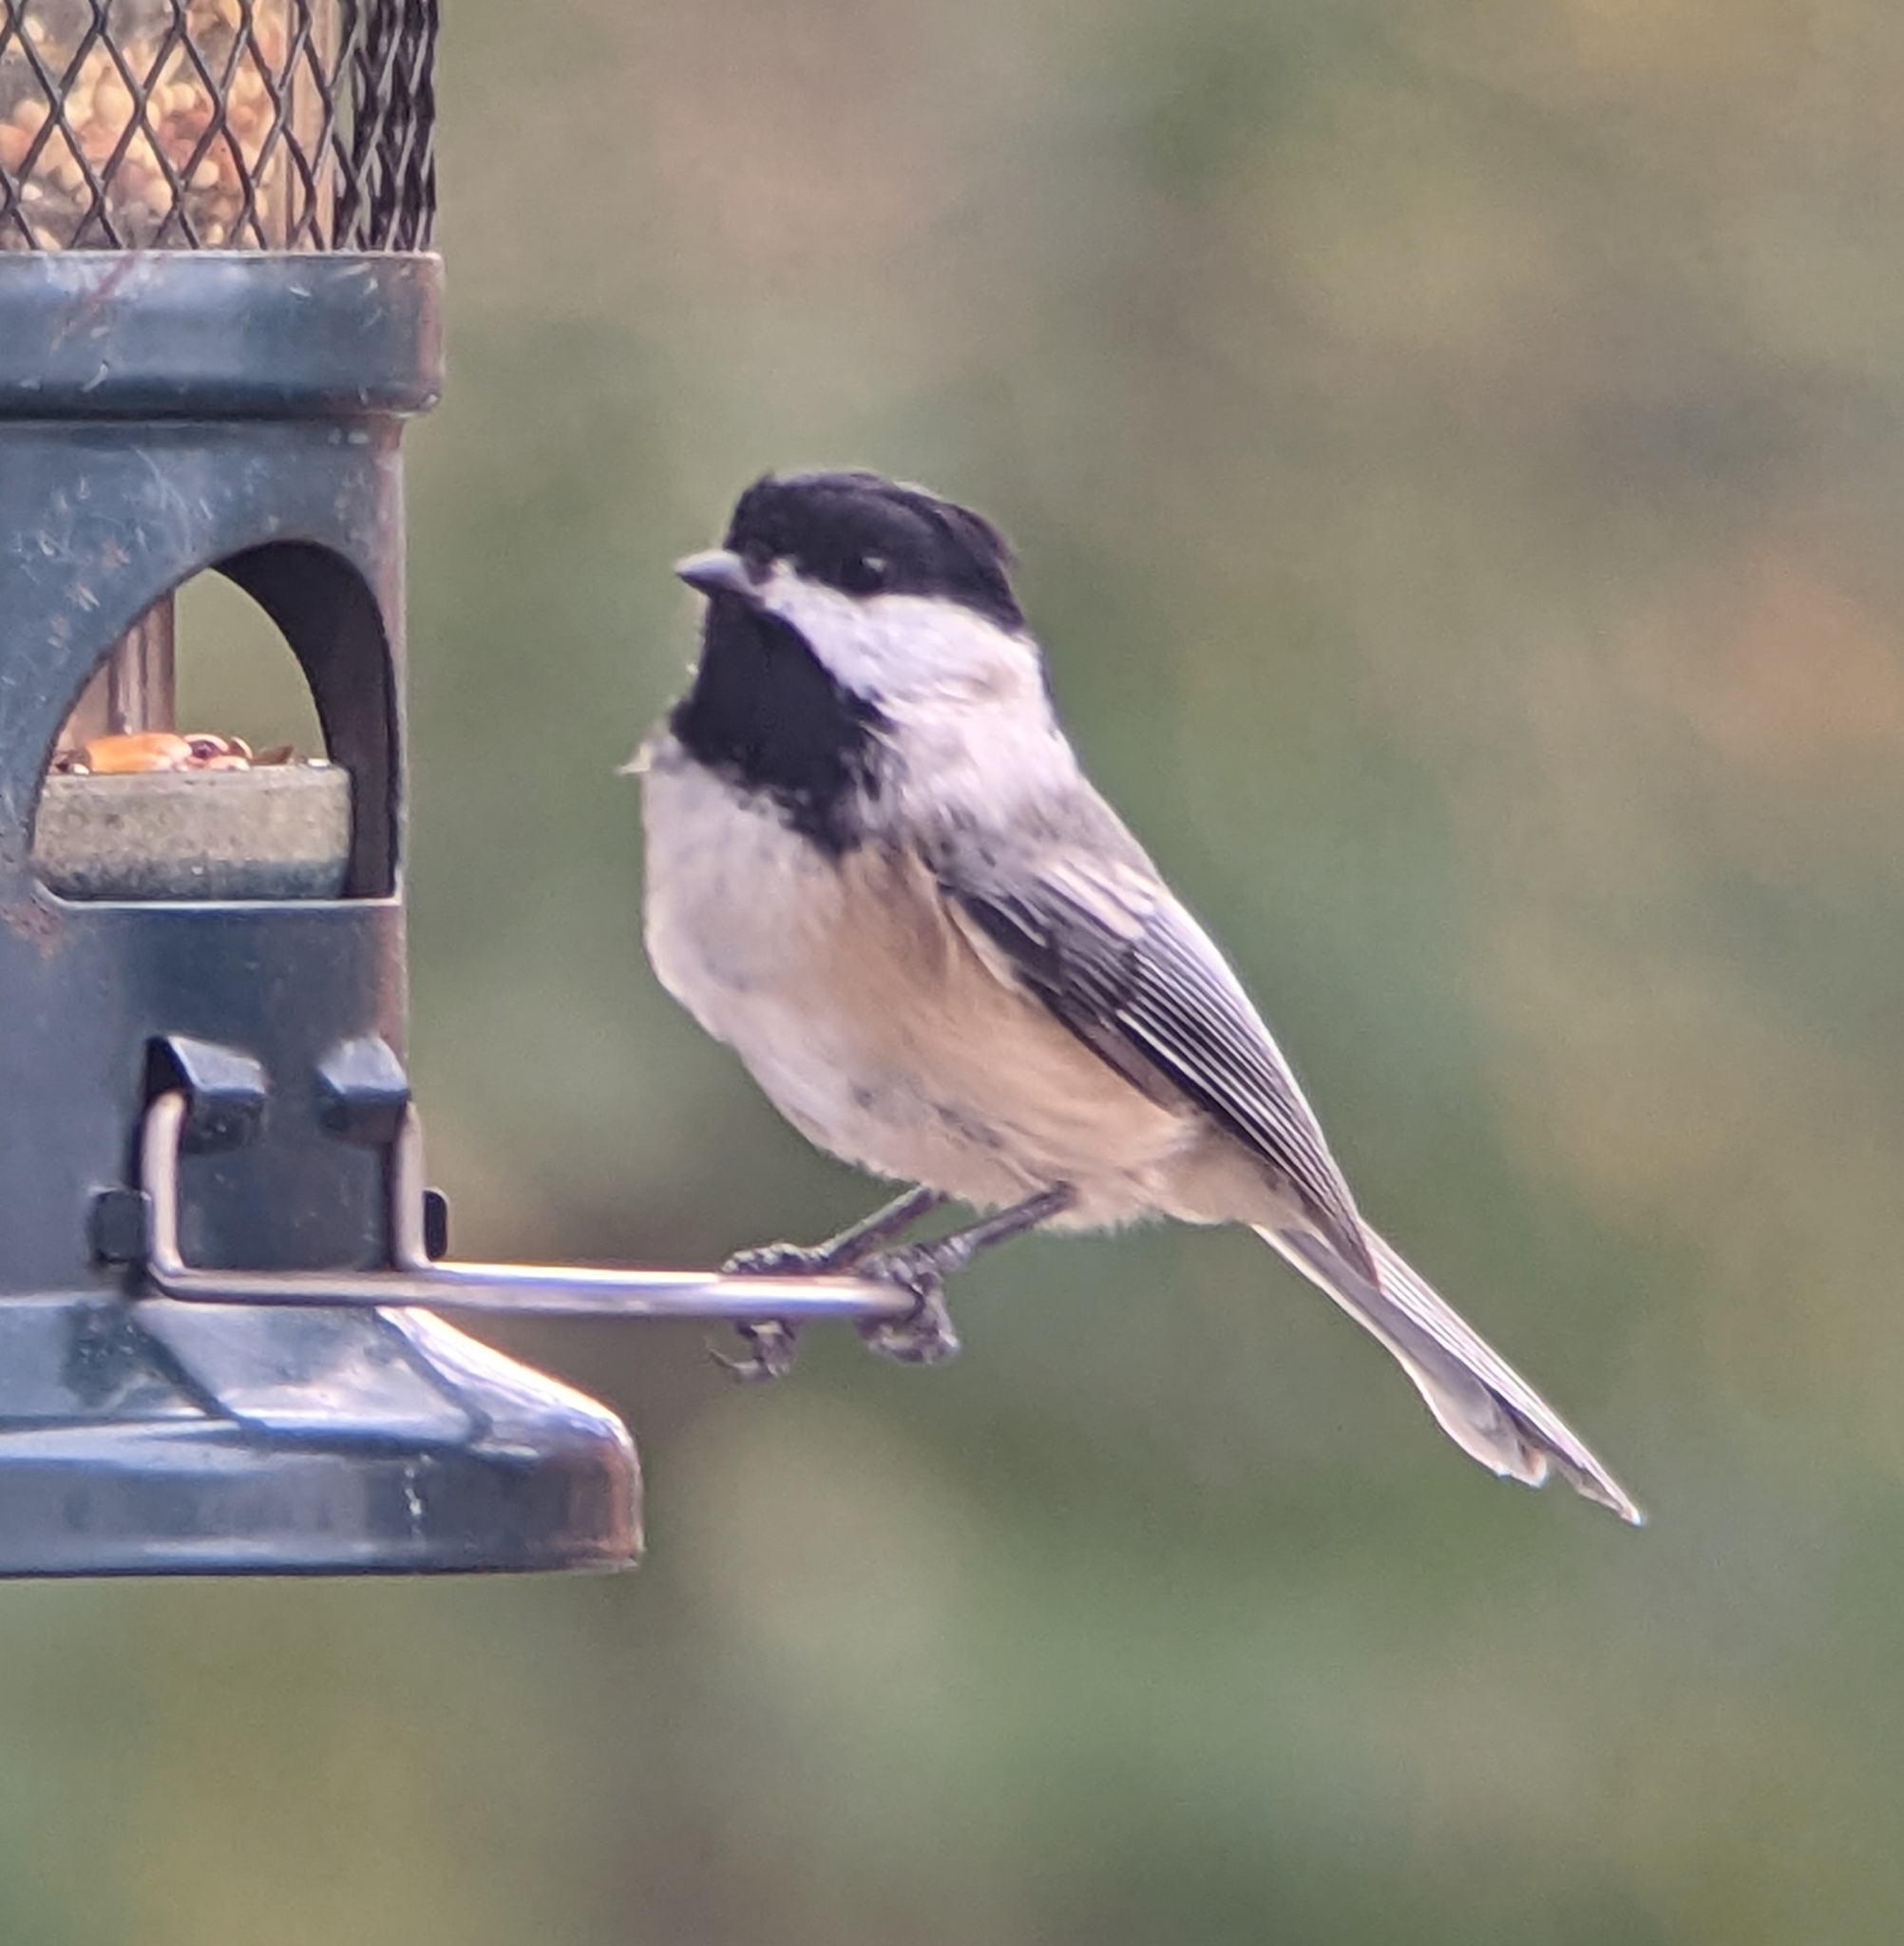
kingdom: Animalia
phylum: Chordata
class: Aves
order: Passeriformes
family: Paridae
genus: Poecile
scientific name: Poecile atricapillus
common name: Black-capped chickadee
